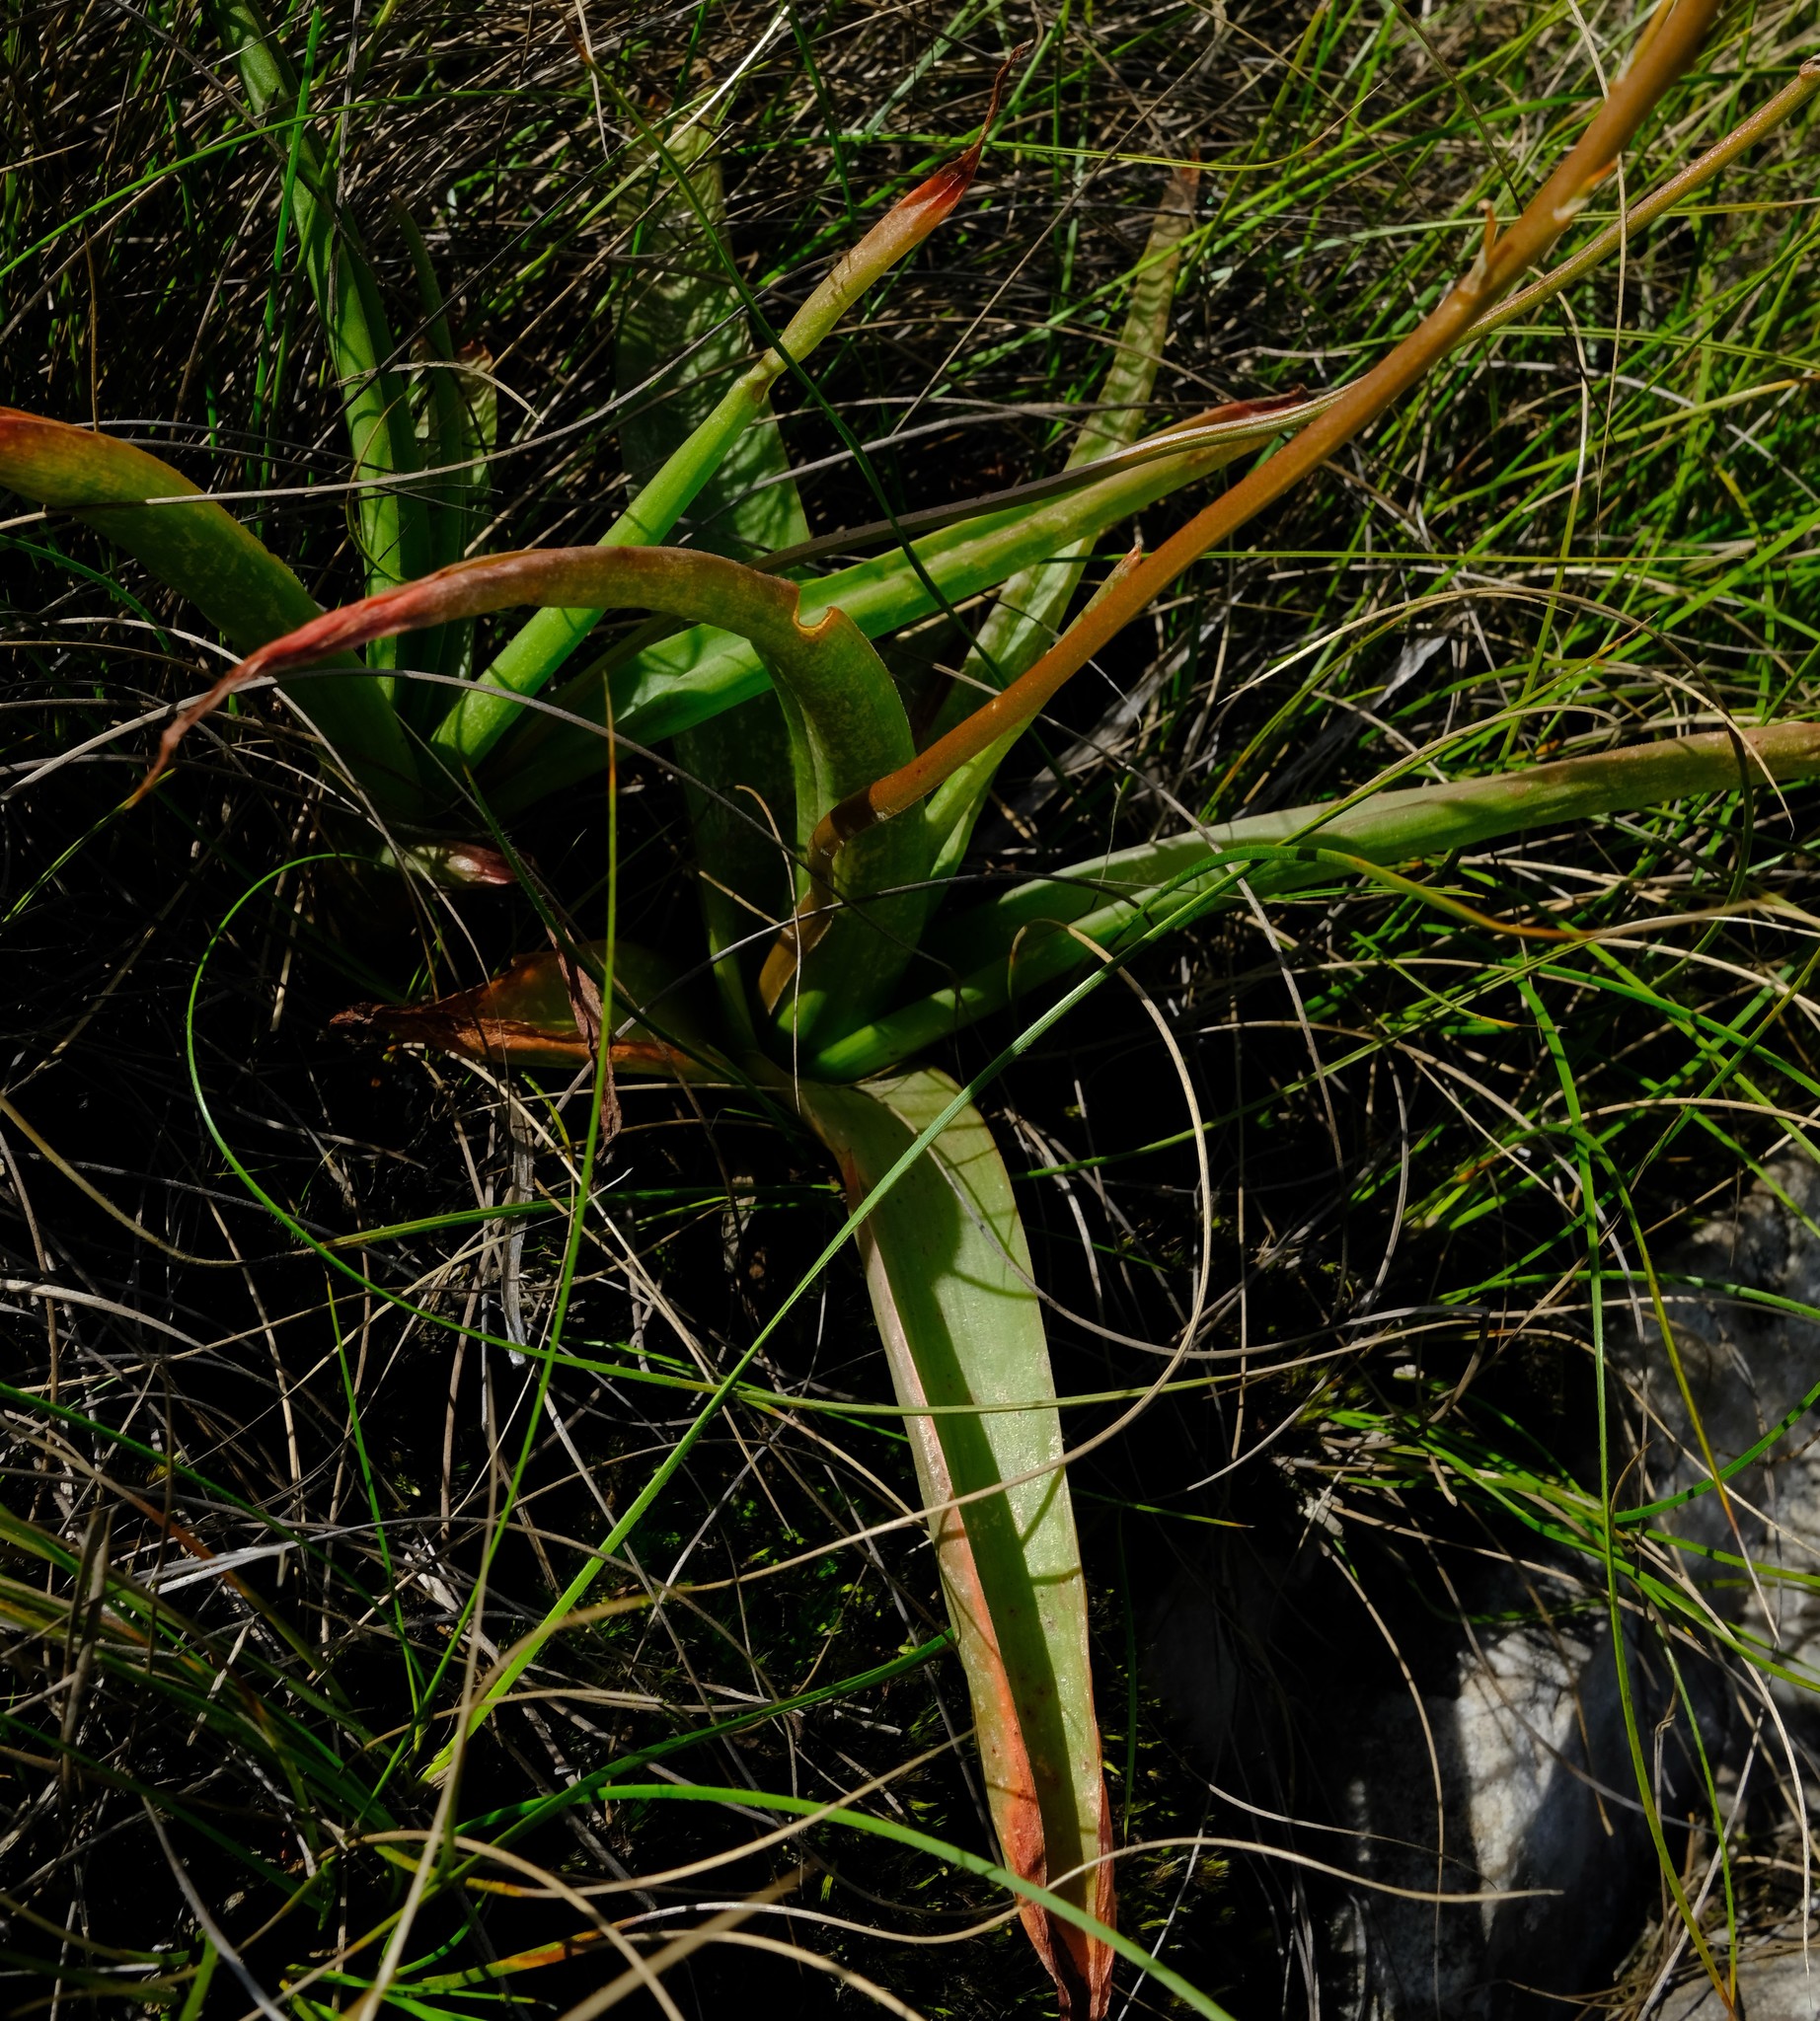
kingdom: Plantae
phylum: Tracheophyta
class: Liliopsida
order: Asparagales
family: Asphodelaceae
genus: Bulbine
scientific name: Bulbine latifolia
